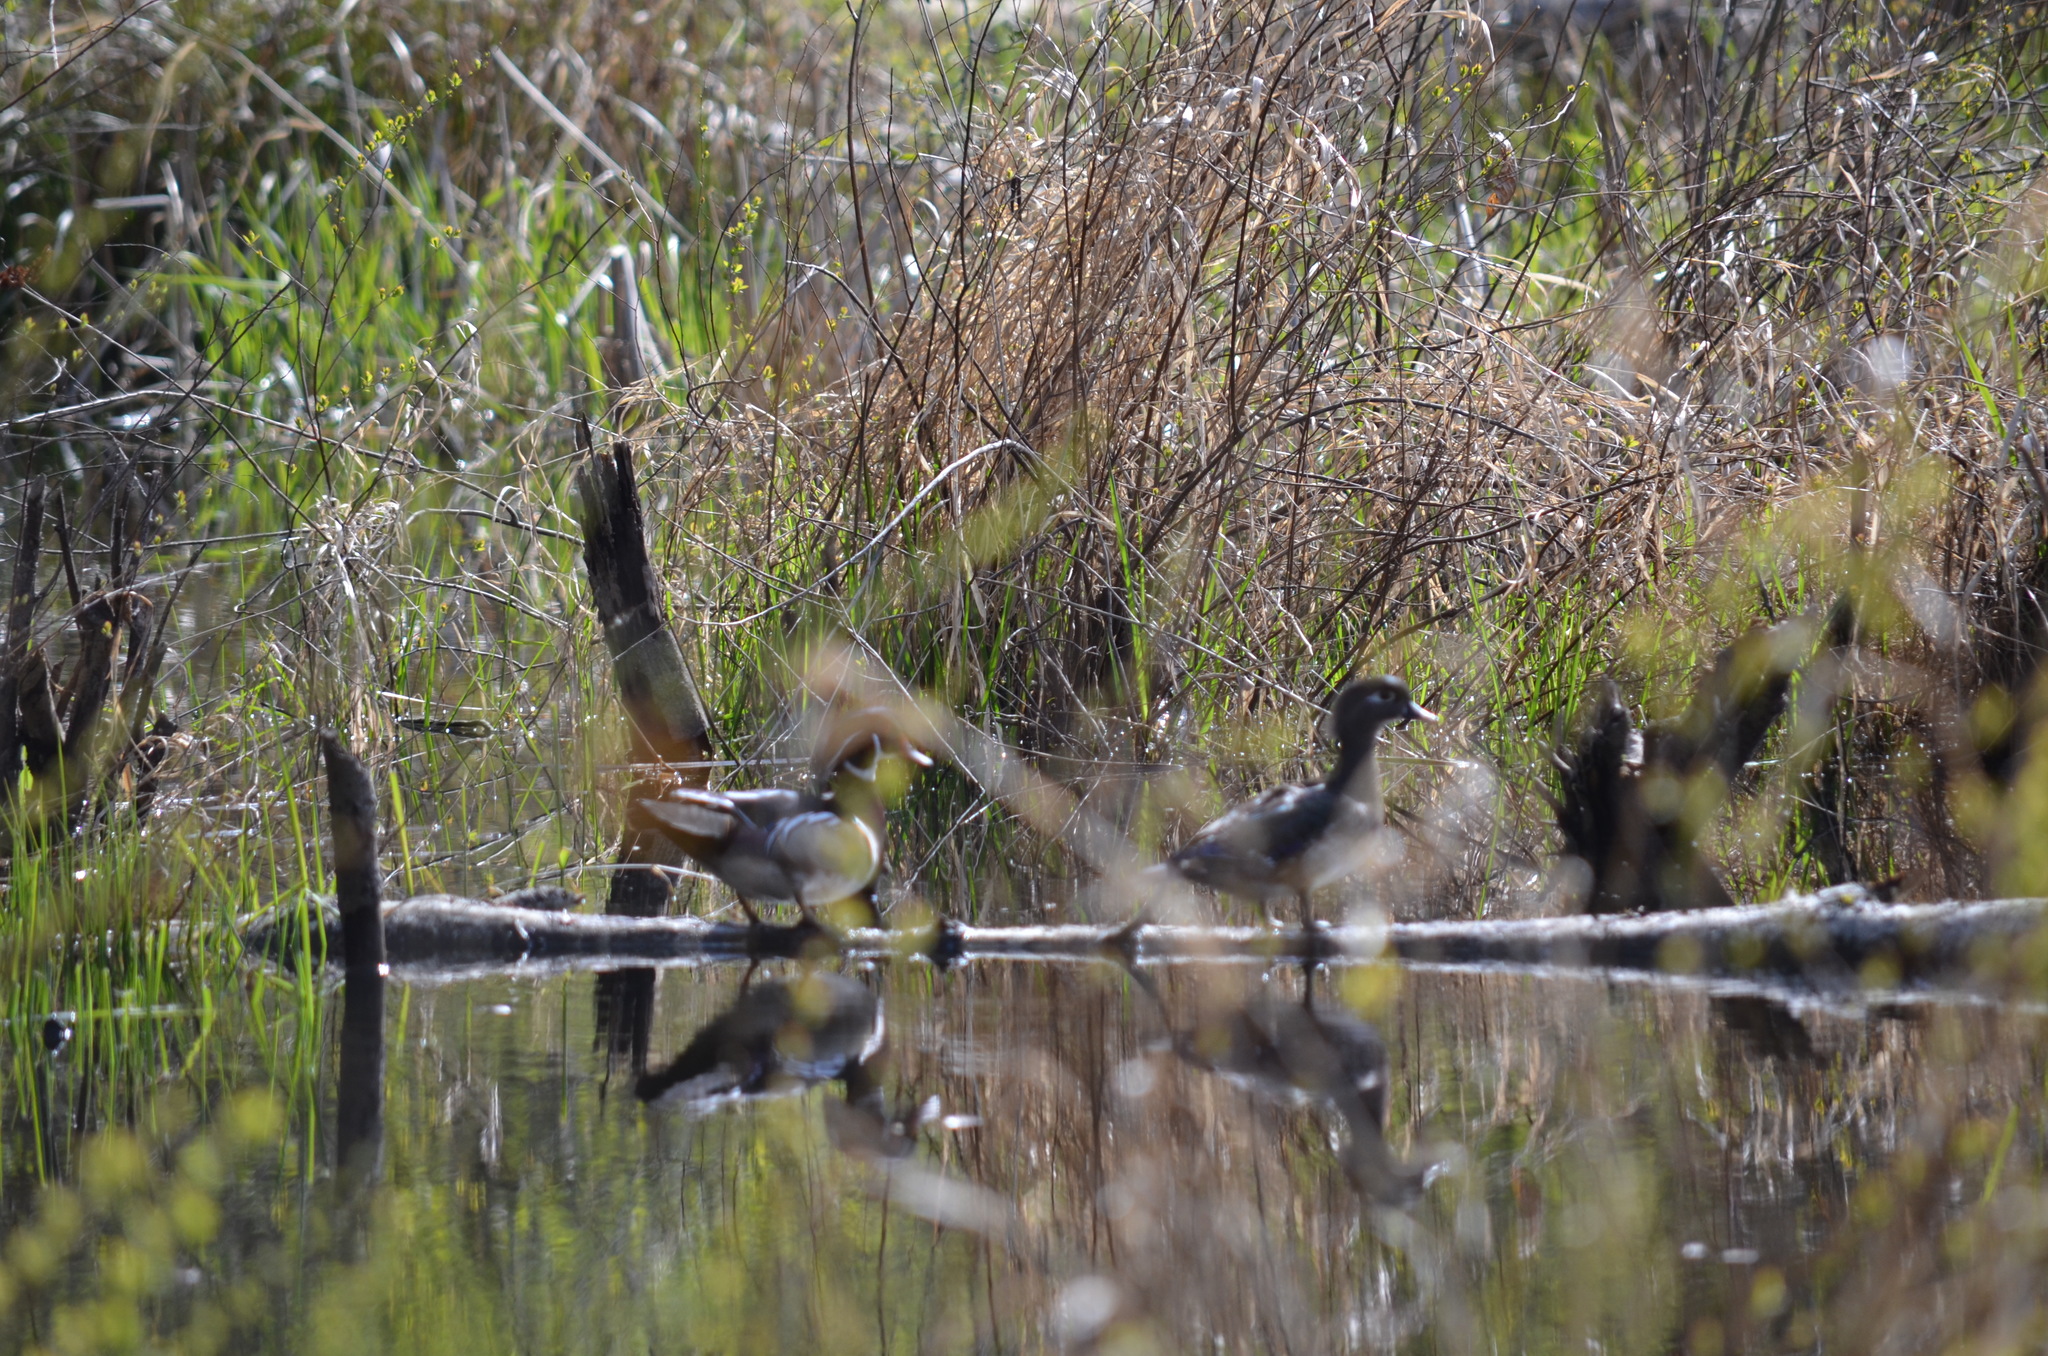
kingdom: Animalia
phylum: Chordata
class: Aves
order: Anseriformes
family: Anatidae
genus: Aix
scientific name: Aix sponsa
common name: Wood duck
